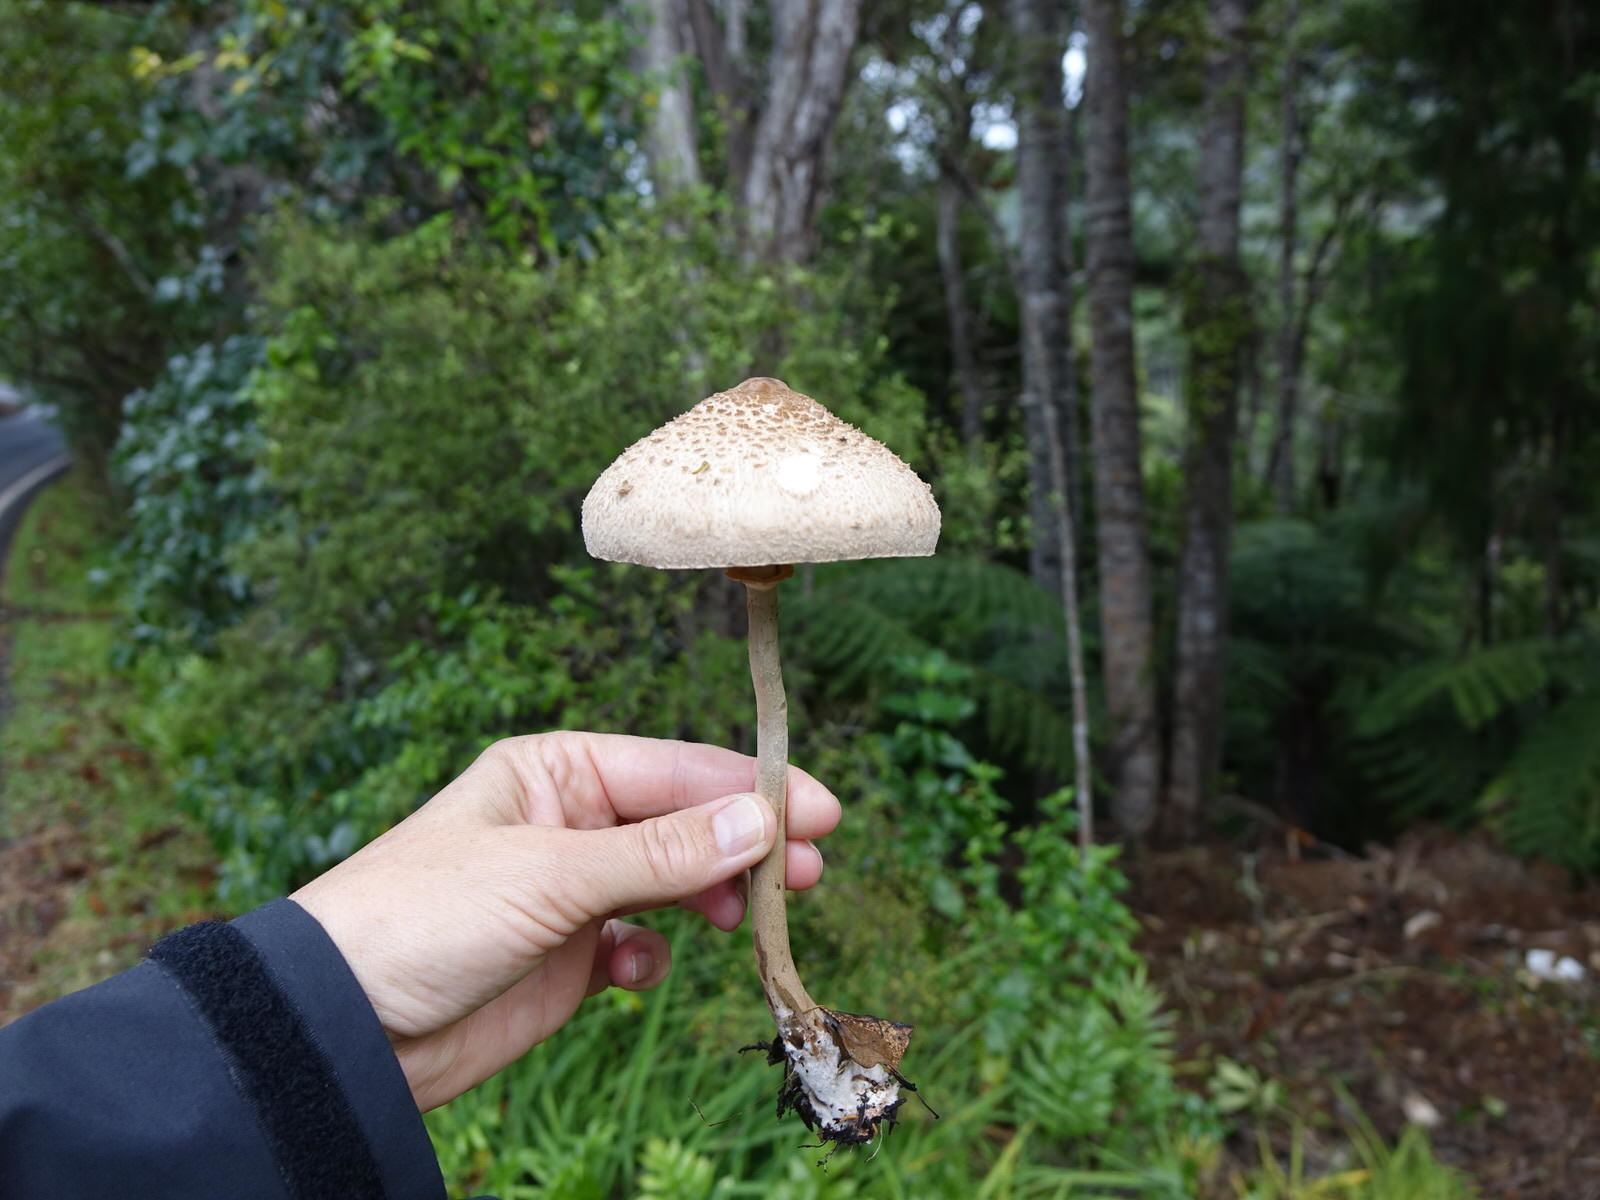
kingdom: Fungi
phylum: Basidiomycota
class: Agaricomycetes
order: Agaricales
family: Agaricaceae
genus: Macrolepiota
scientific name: Macrolepiota clelandii
